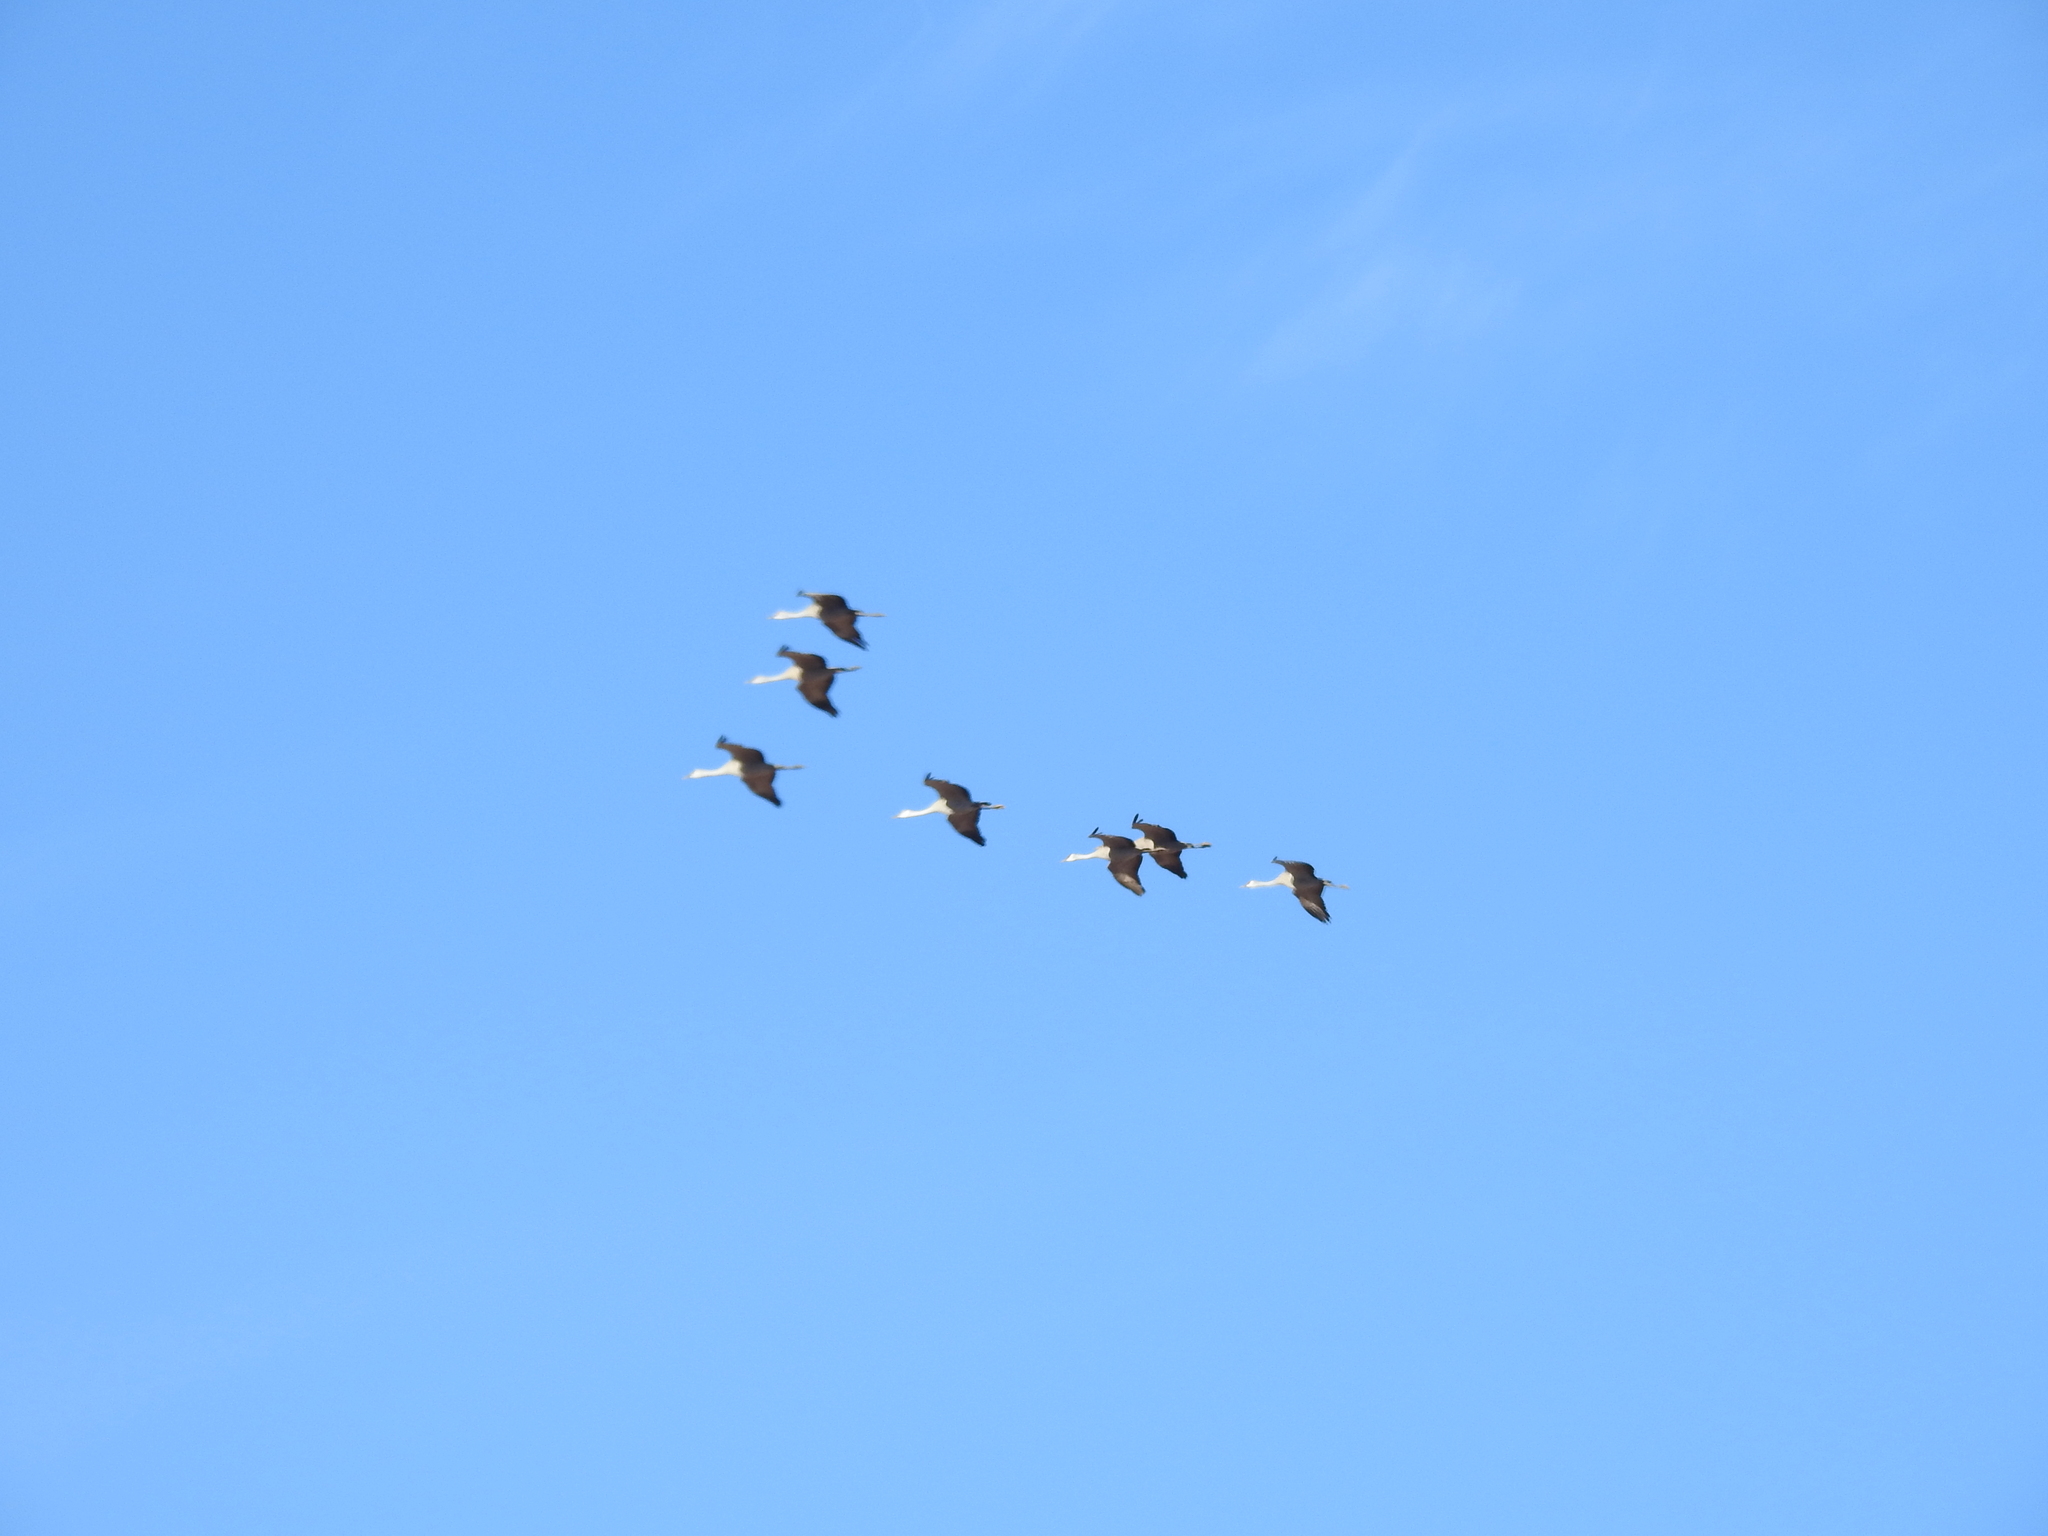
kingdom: Animalia
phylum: Chordata
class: Aves
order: Gruiformes
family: Gruidae
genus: Grus
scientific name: Grus canadensis
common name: Sandhill crane
